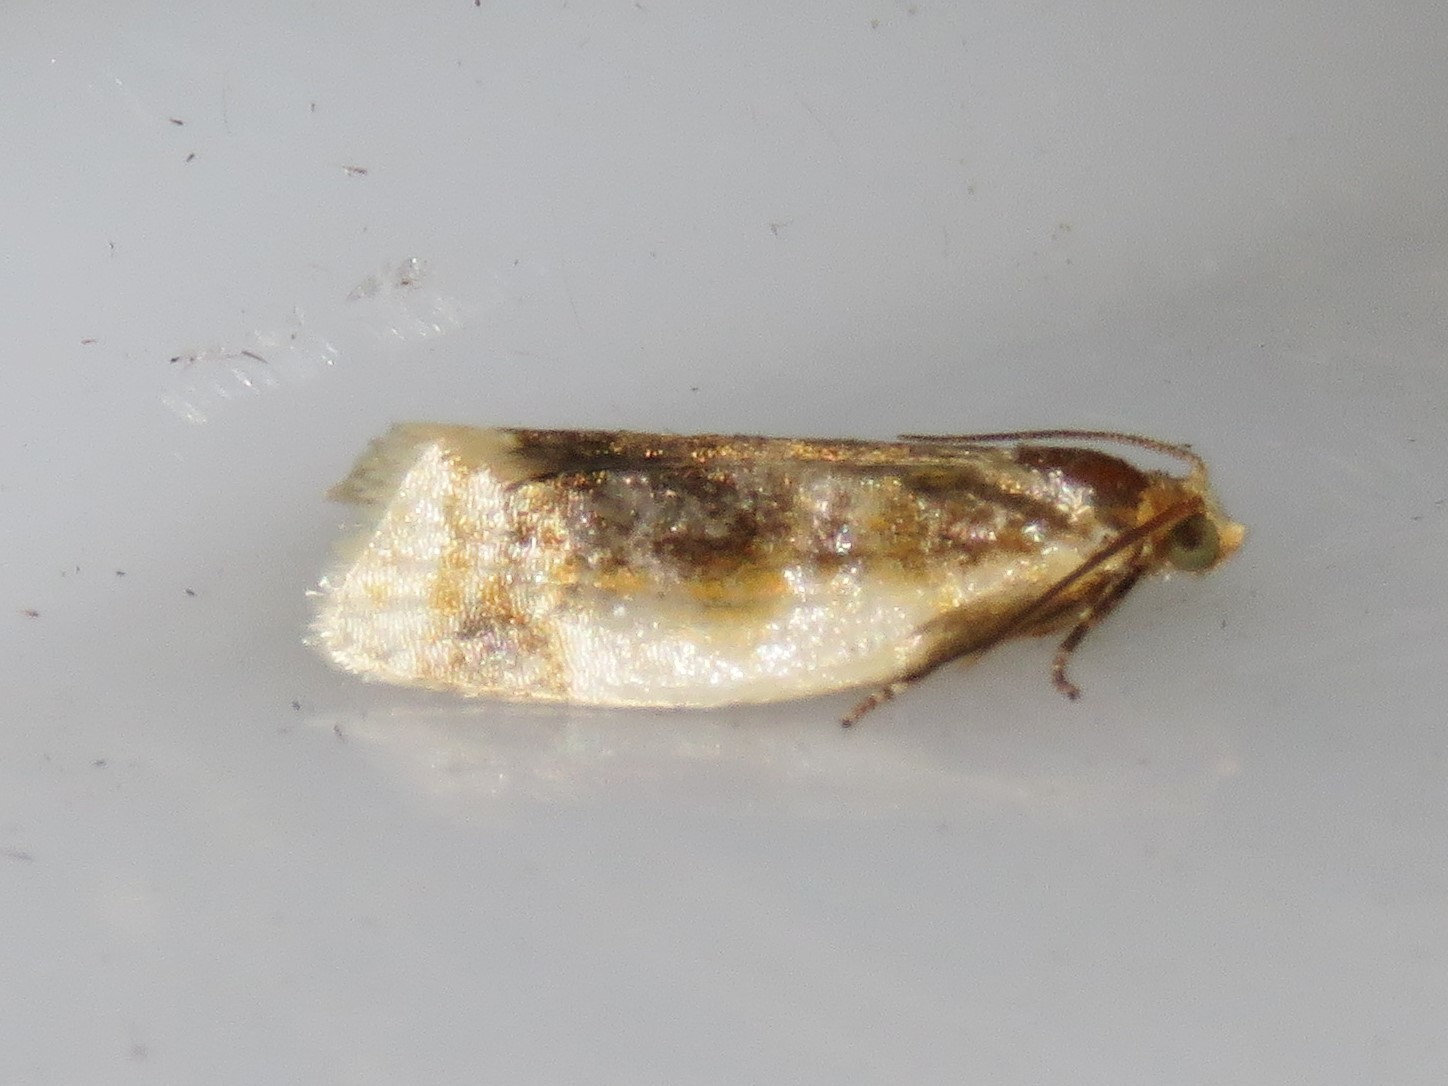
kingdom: Animalia
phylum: Arthropoda
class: Insecta
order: Lepidoptera
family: Tortricidae
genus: Clepsis
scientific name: Clepsis melaleucanus
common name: American apple tortrix
